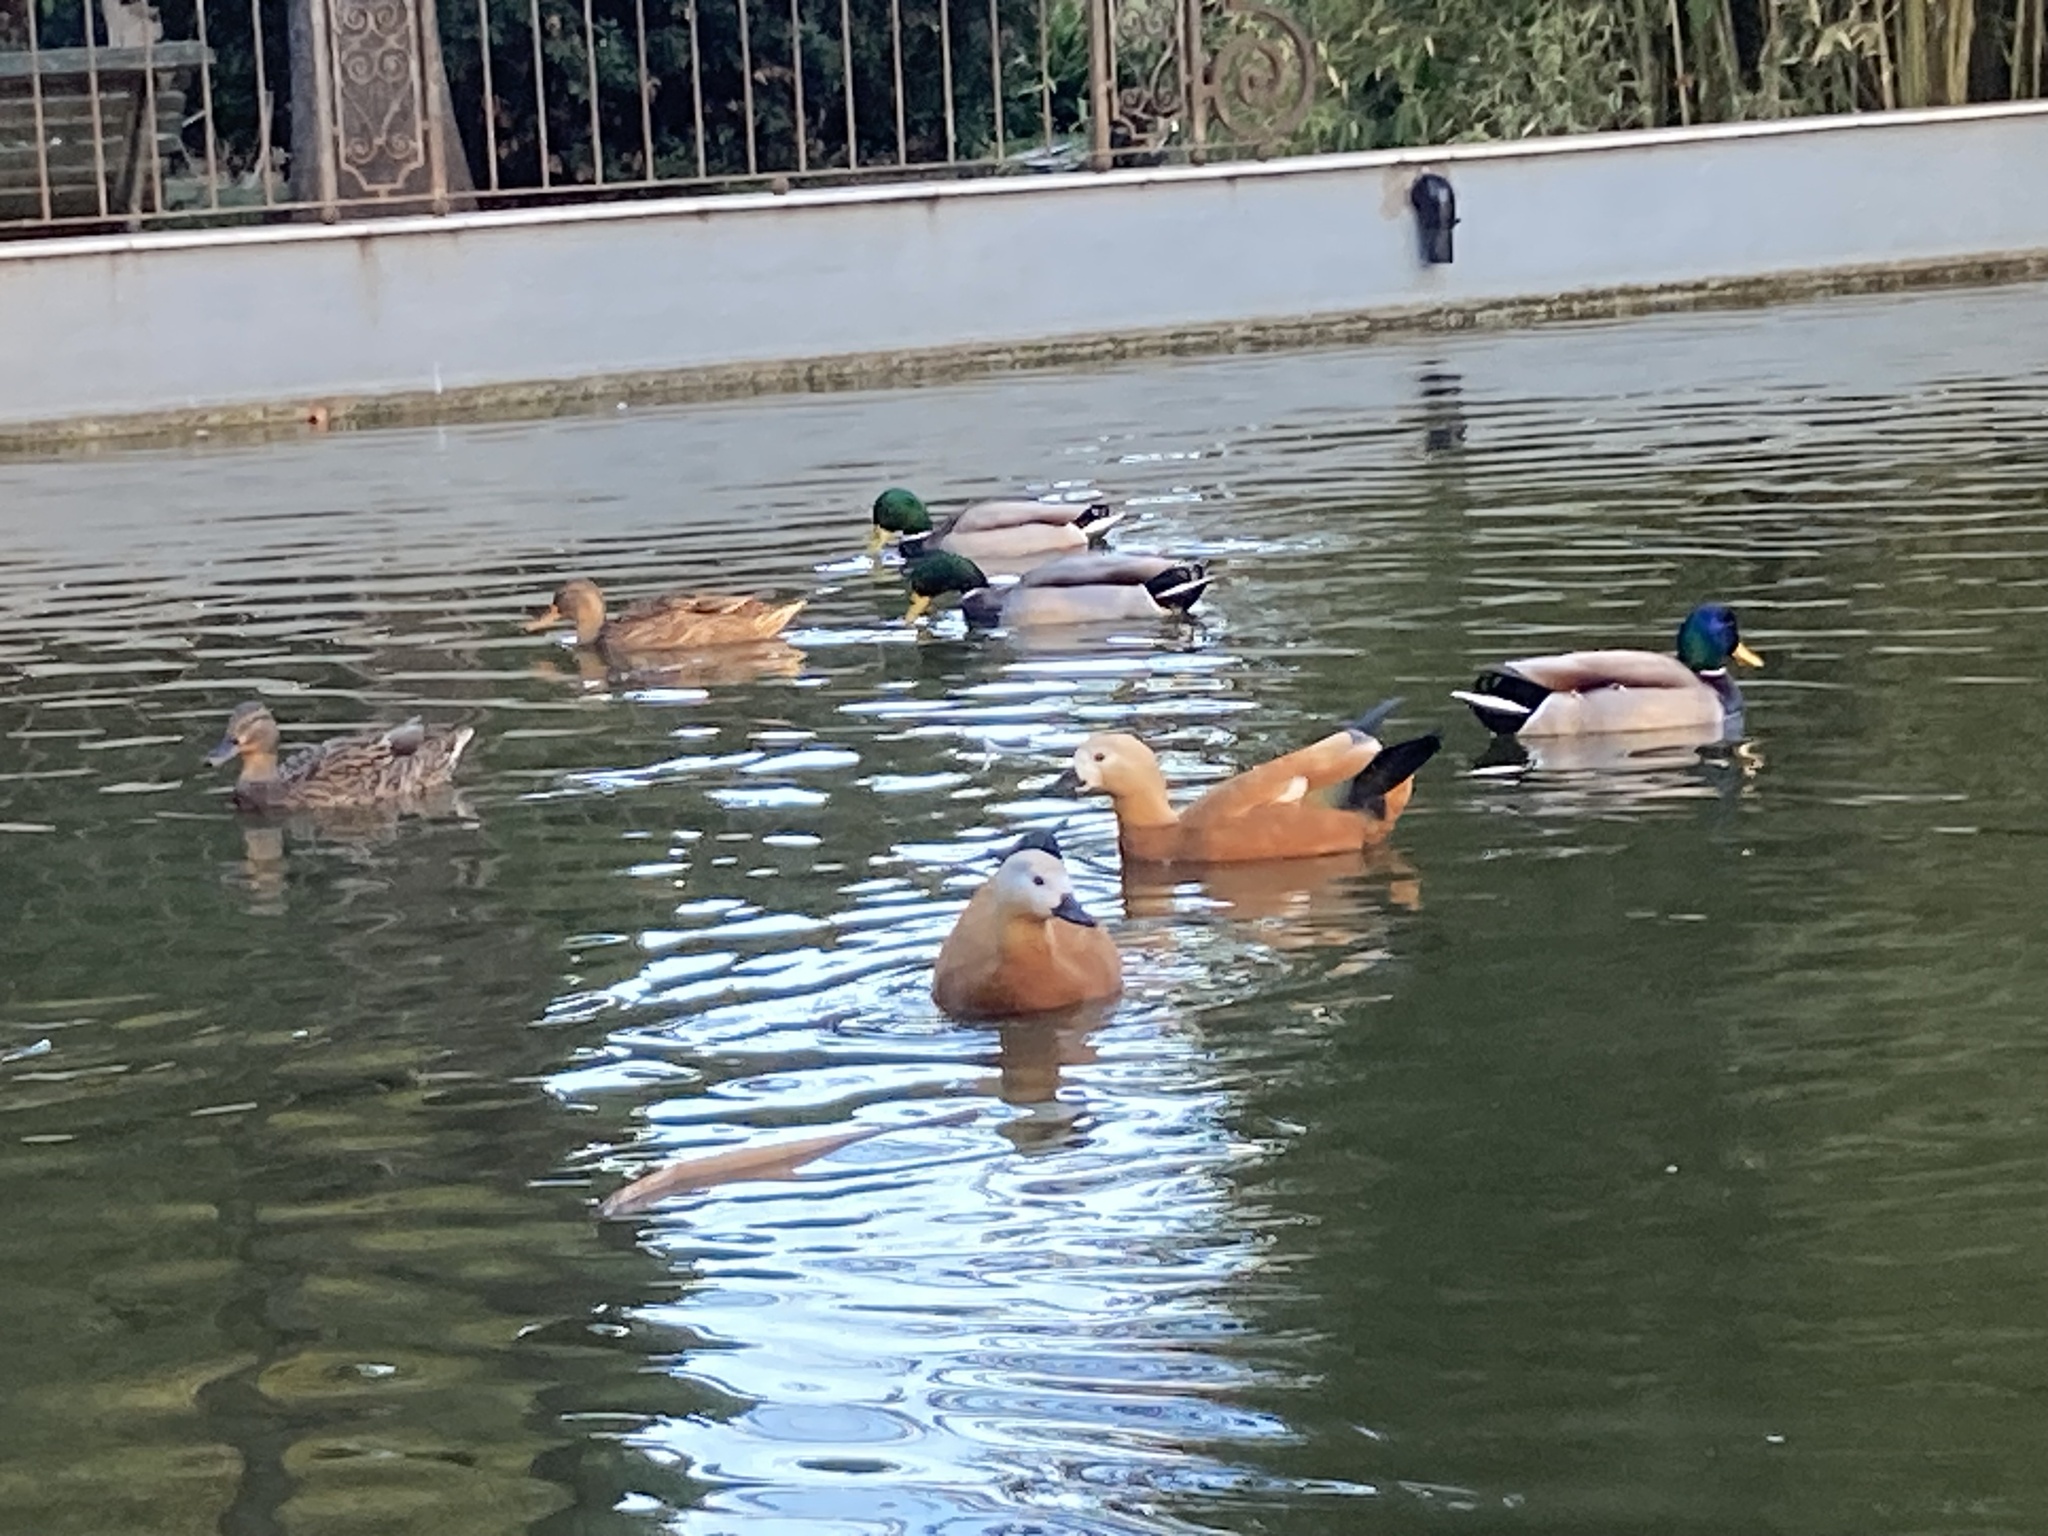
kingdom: Animalia
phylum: Chordata
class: Aves
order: Anseriformes
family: Anatidae
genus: Tadorna
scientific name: Tadorna ferruginea
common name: Ruddy shelduck
